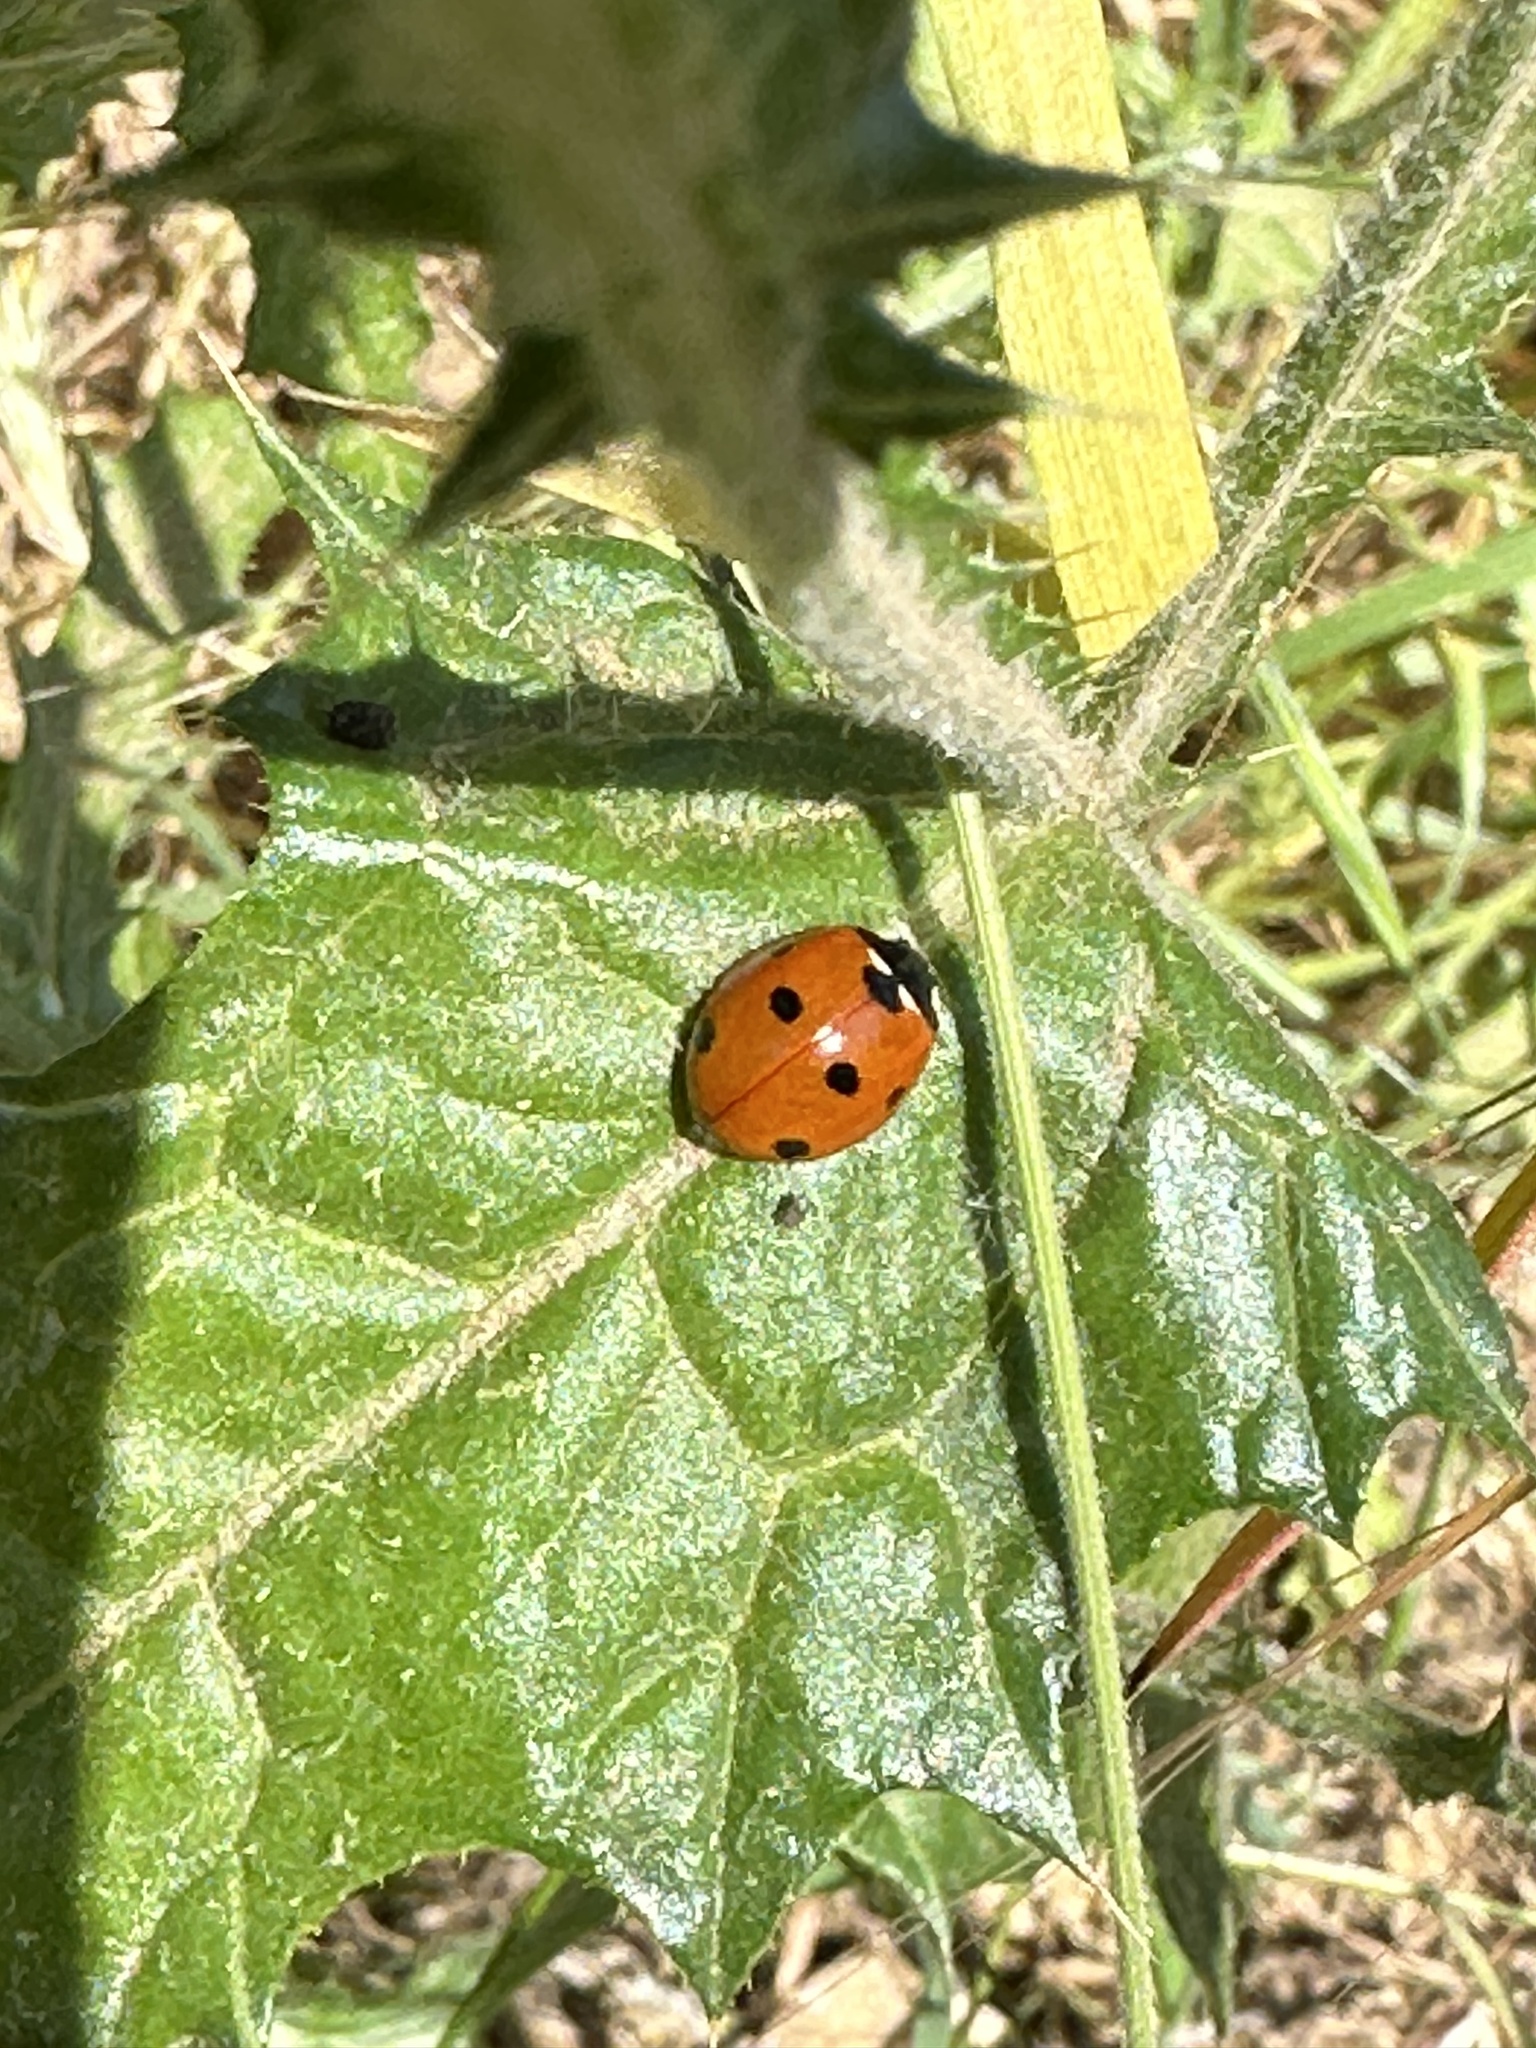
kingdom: Animalia
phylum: Arthropoda
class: Insecta
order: Coleoptera
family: Coccinellidae
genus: Coccinella
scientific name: Coccinella septempunctata
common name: Sevenspotted lady beetle
